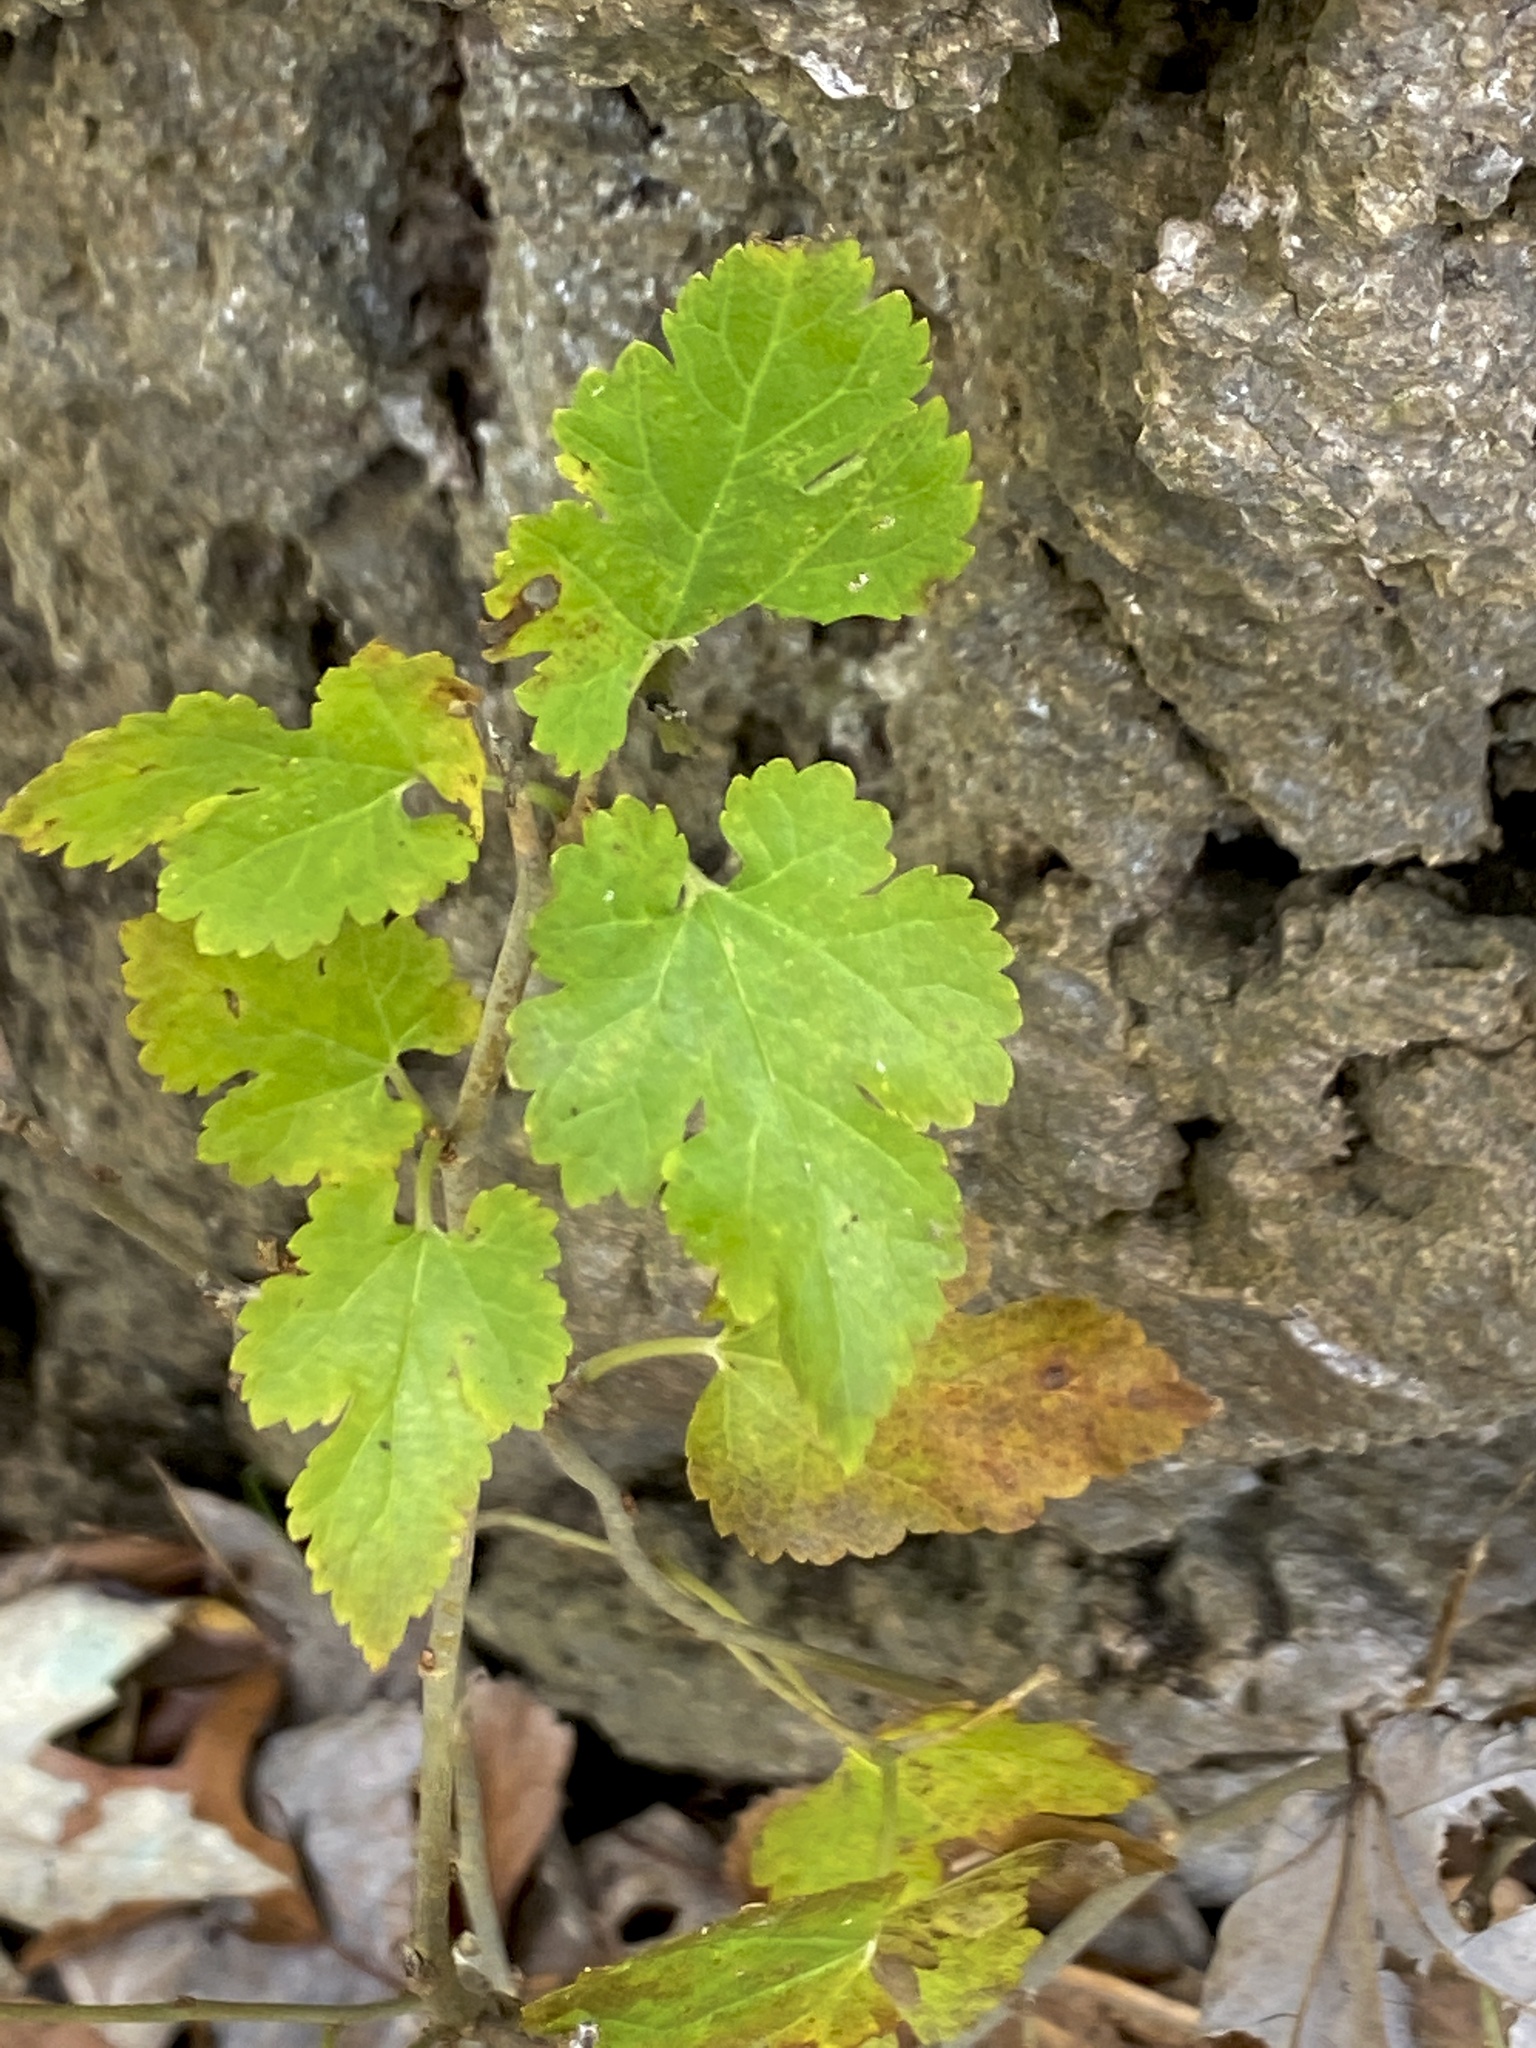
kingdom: Plantae
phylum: Tracheophyta
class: Magnoliopsida
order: Rosales
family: Moraceae
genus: Morus
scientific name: Morus alba
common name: White mulberry
